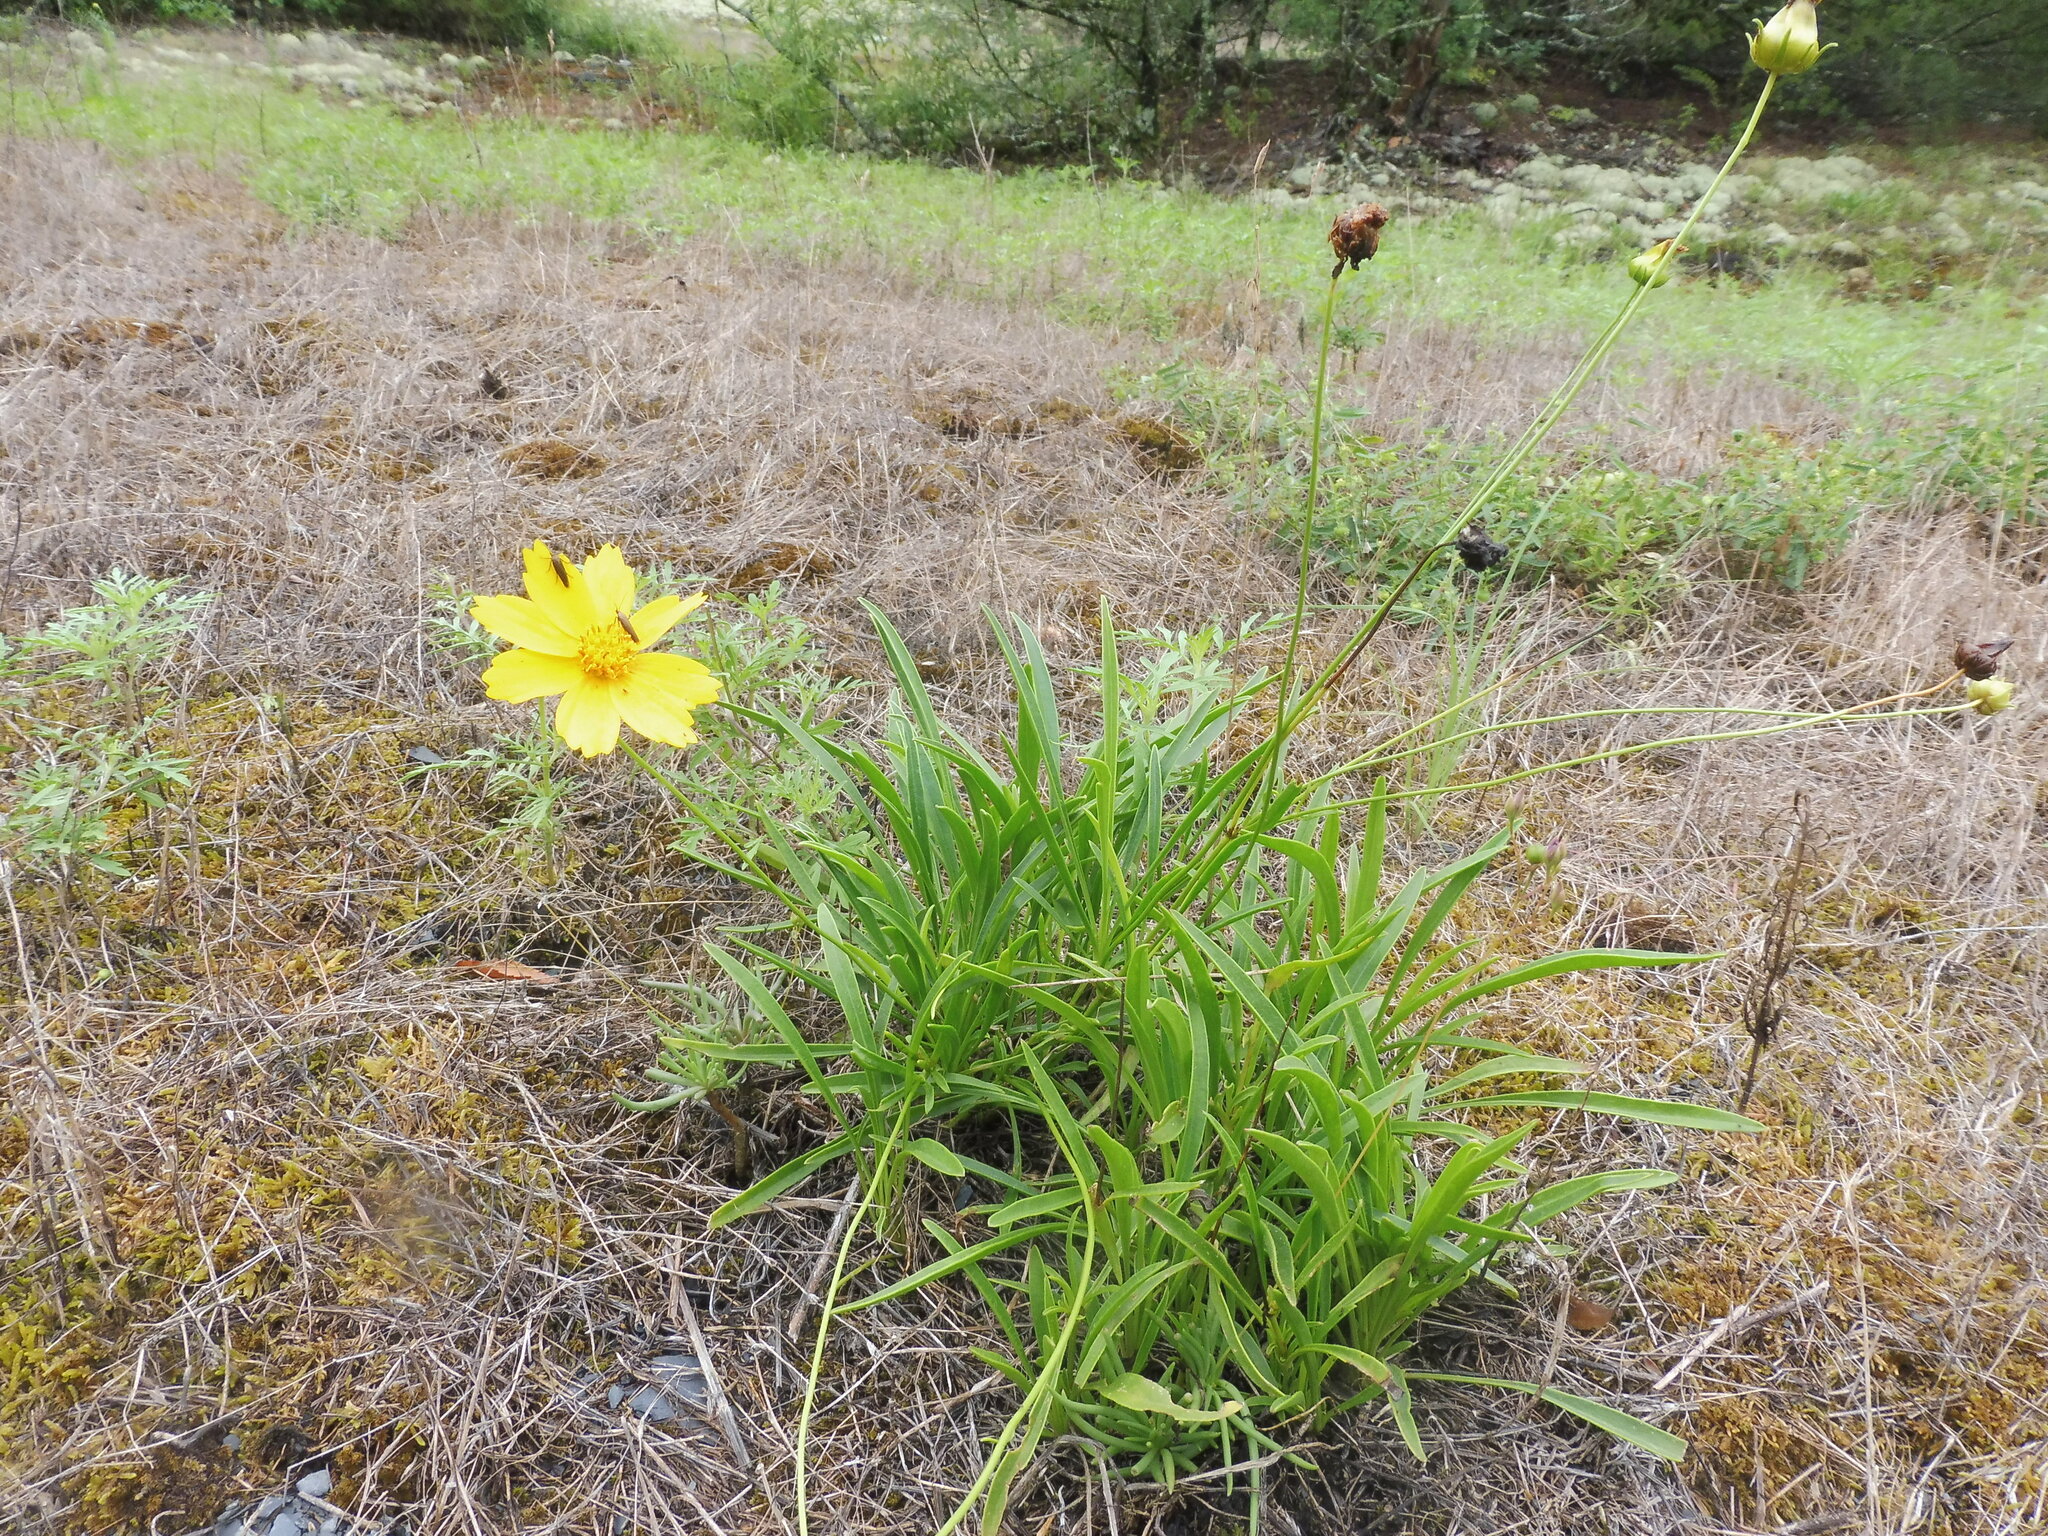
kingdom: Plantae
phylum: Tracheophyta
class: Magnoliopsida
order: Asterales
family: Asteraceae
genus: Coreopsis
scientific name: Coreopsis lanceolata
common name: Garden coreopsis
